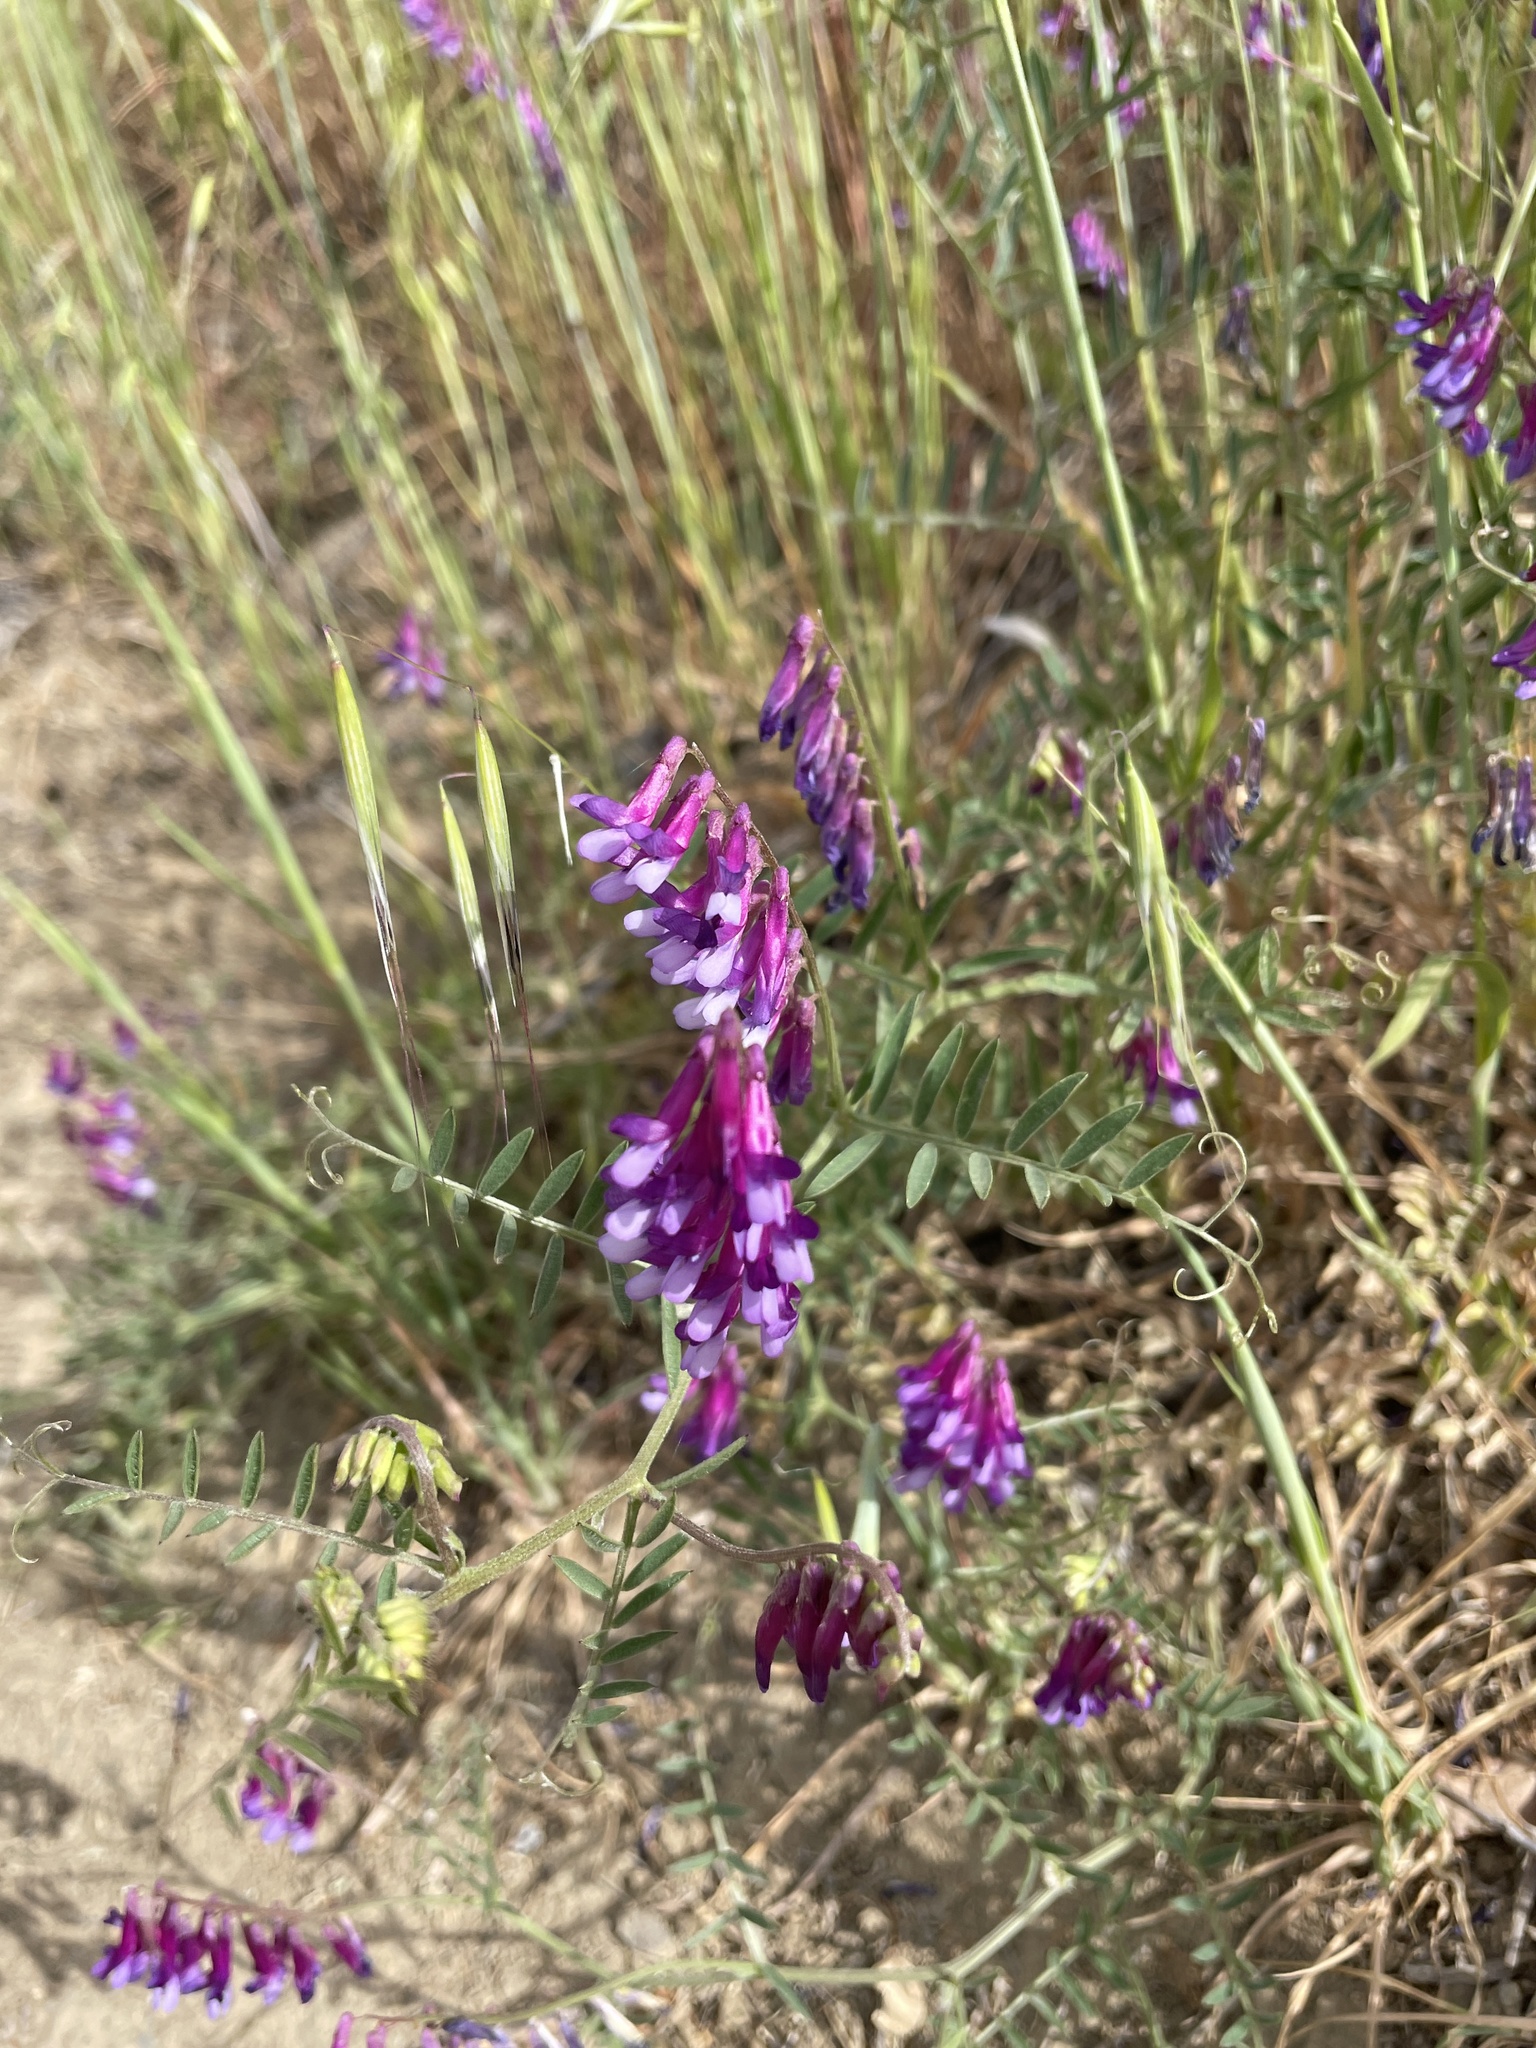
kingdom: Plantae
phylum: Tracheophyta
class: Magnoliopsida
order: Fabales
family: Fabaceae
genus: Vicia
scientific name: Vicia villosa
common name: Fodder vetch
